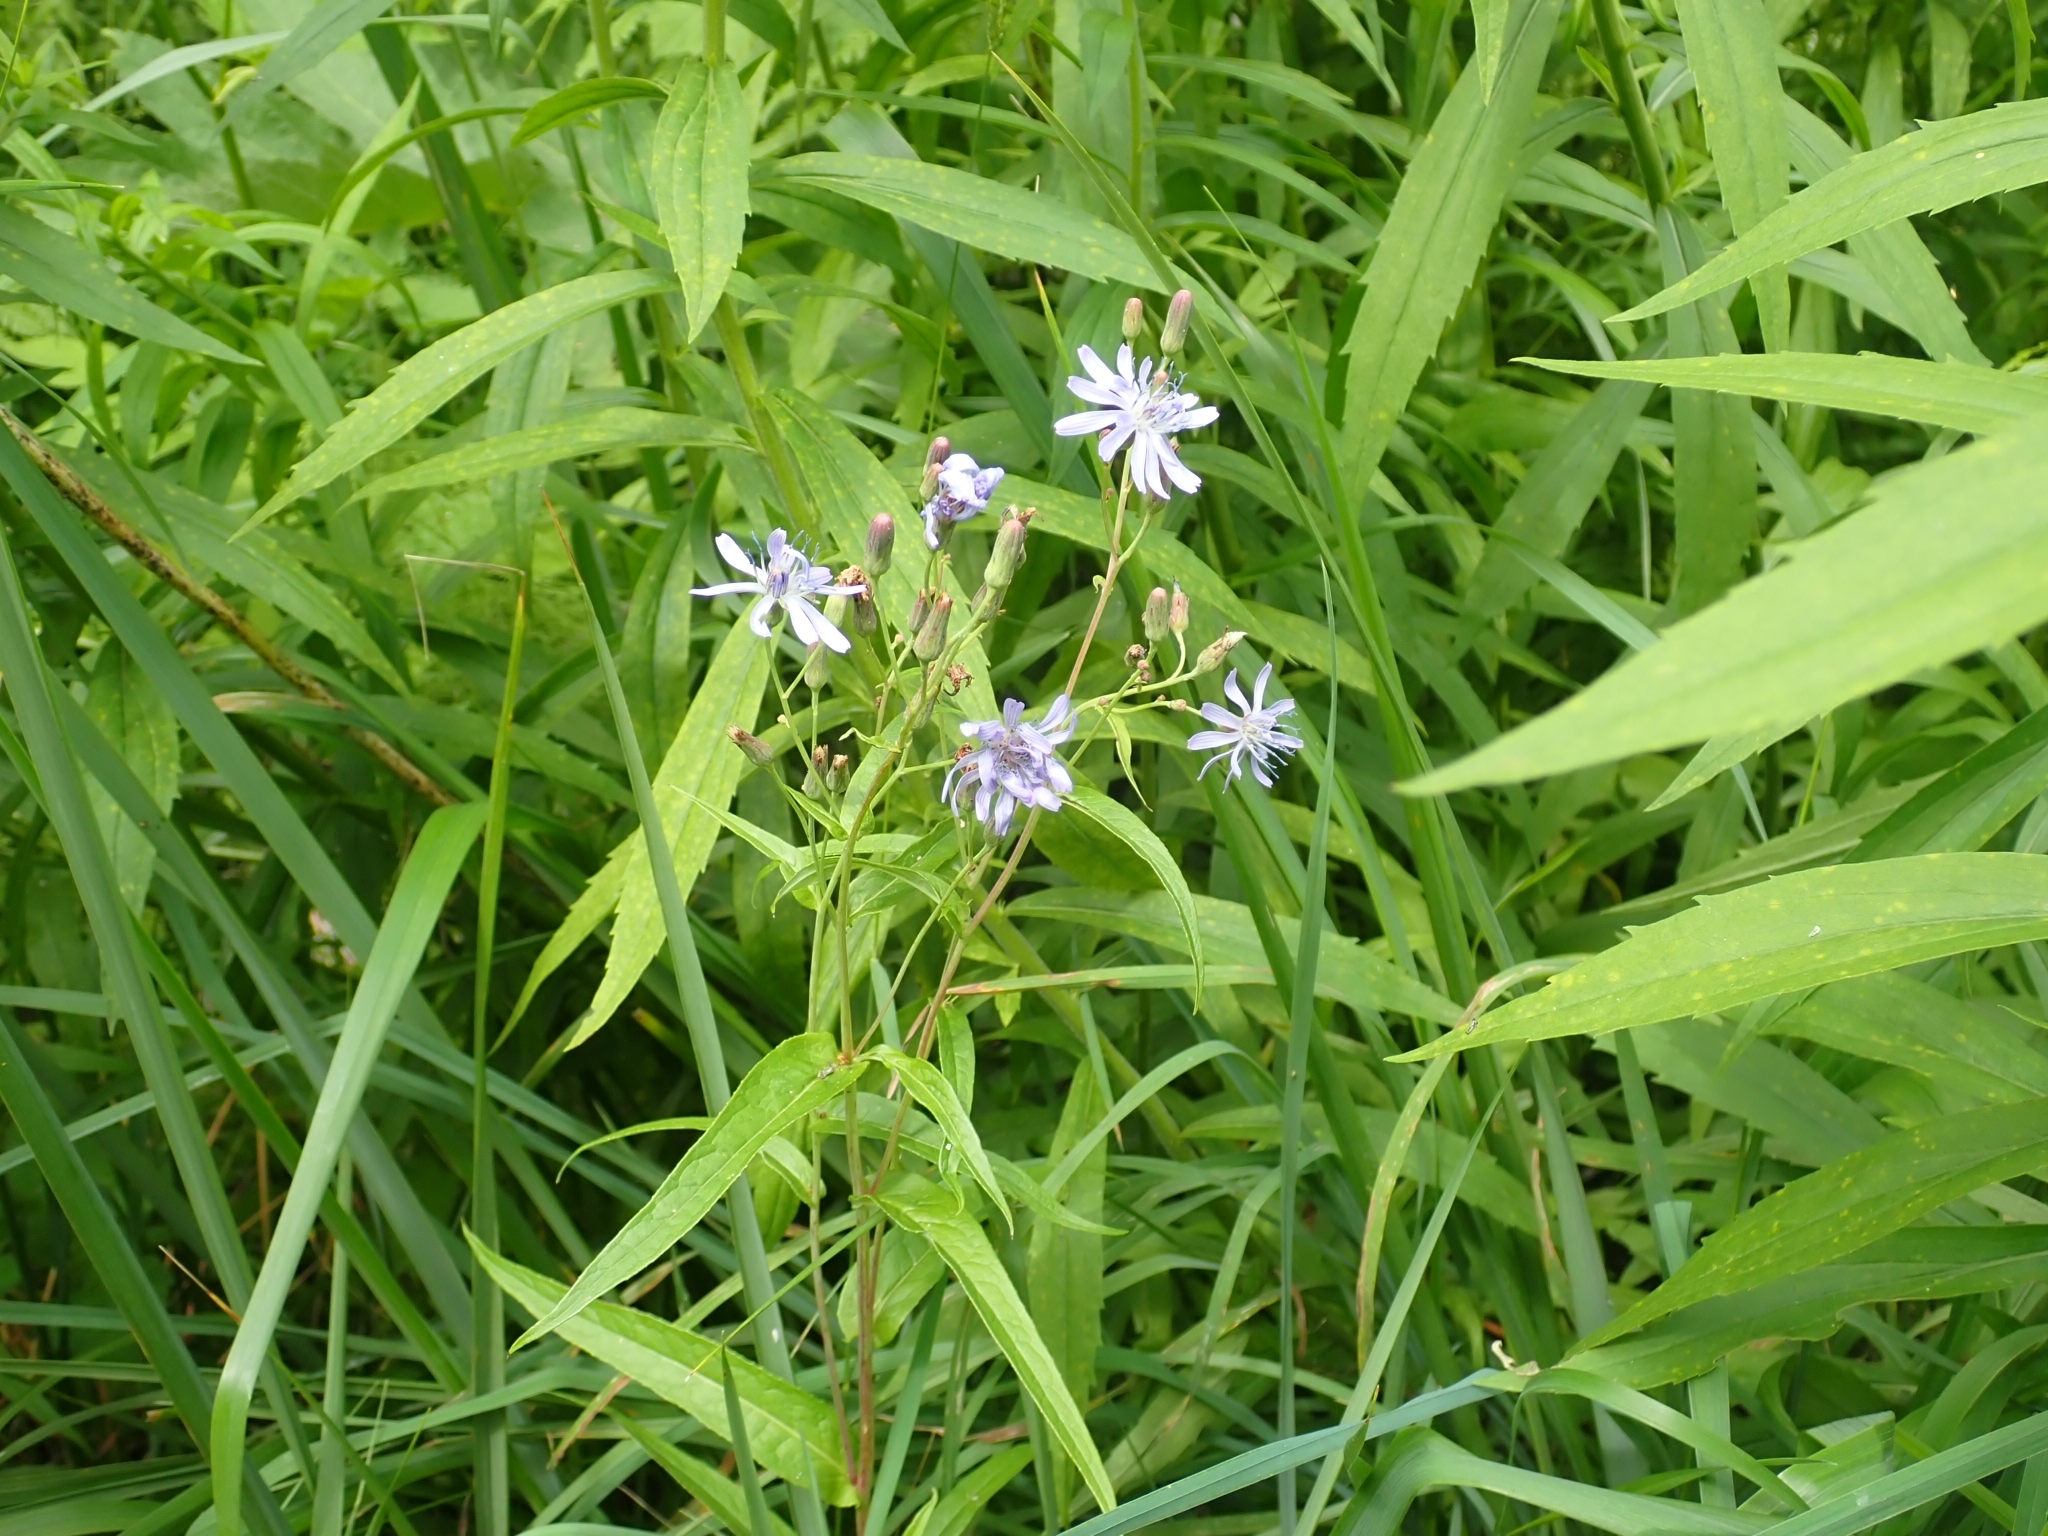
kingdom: Plantae
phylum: Tracheophyta
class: Magnoliopsida
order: Asterales
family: Asteraceae
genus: Lactuca
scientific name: Lactuca sibirica
